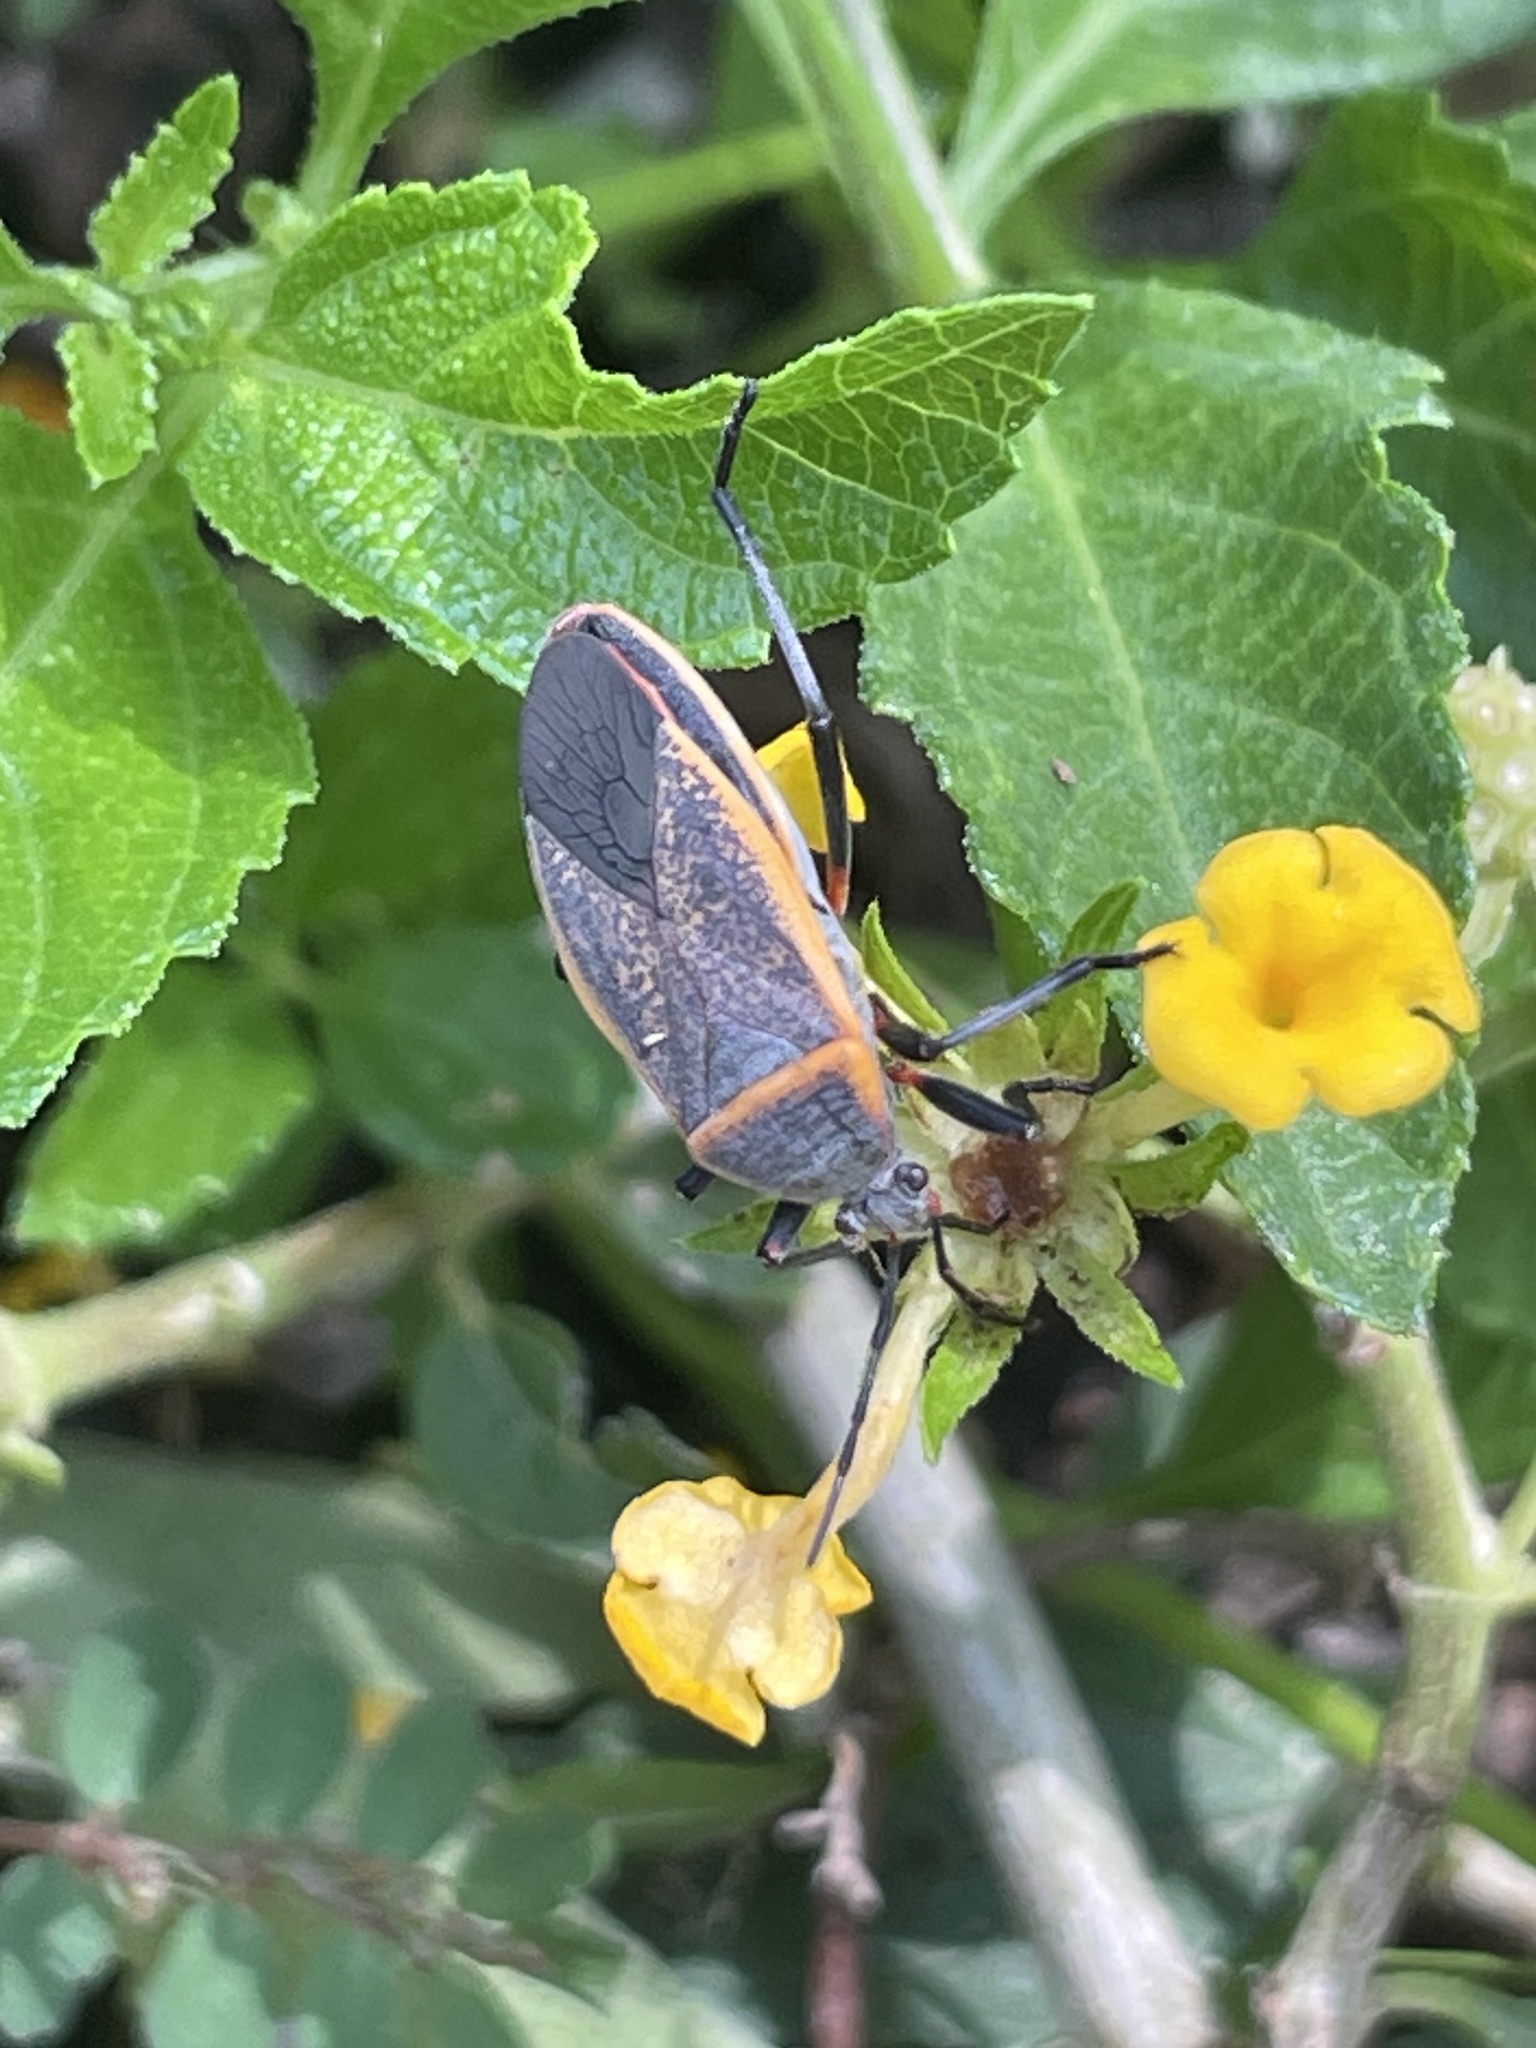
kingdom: Animalia
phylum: Arthropoda
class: Insecta
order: Hemiptera
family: Largidae
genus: Largus
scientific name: Largus succinctus
